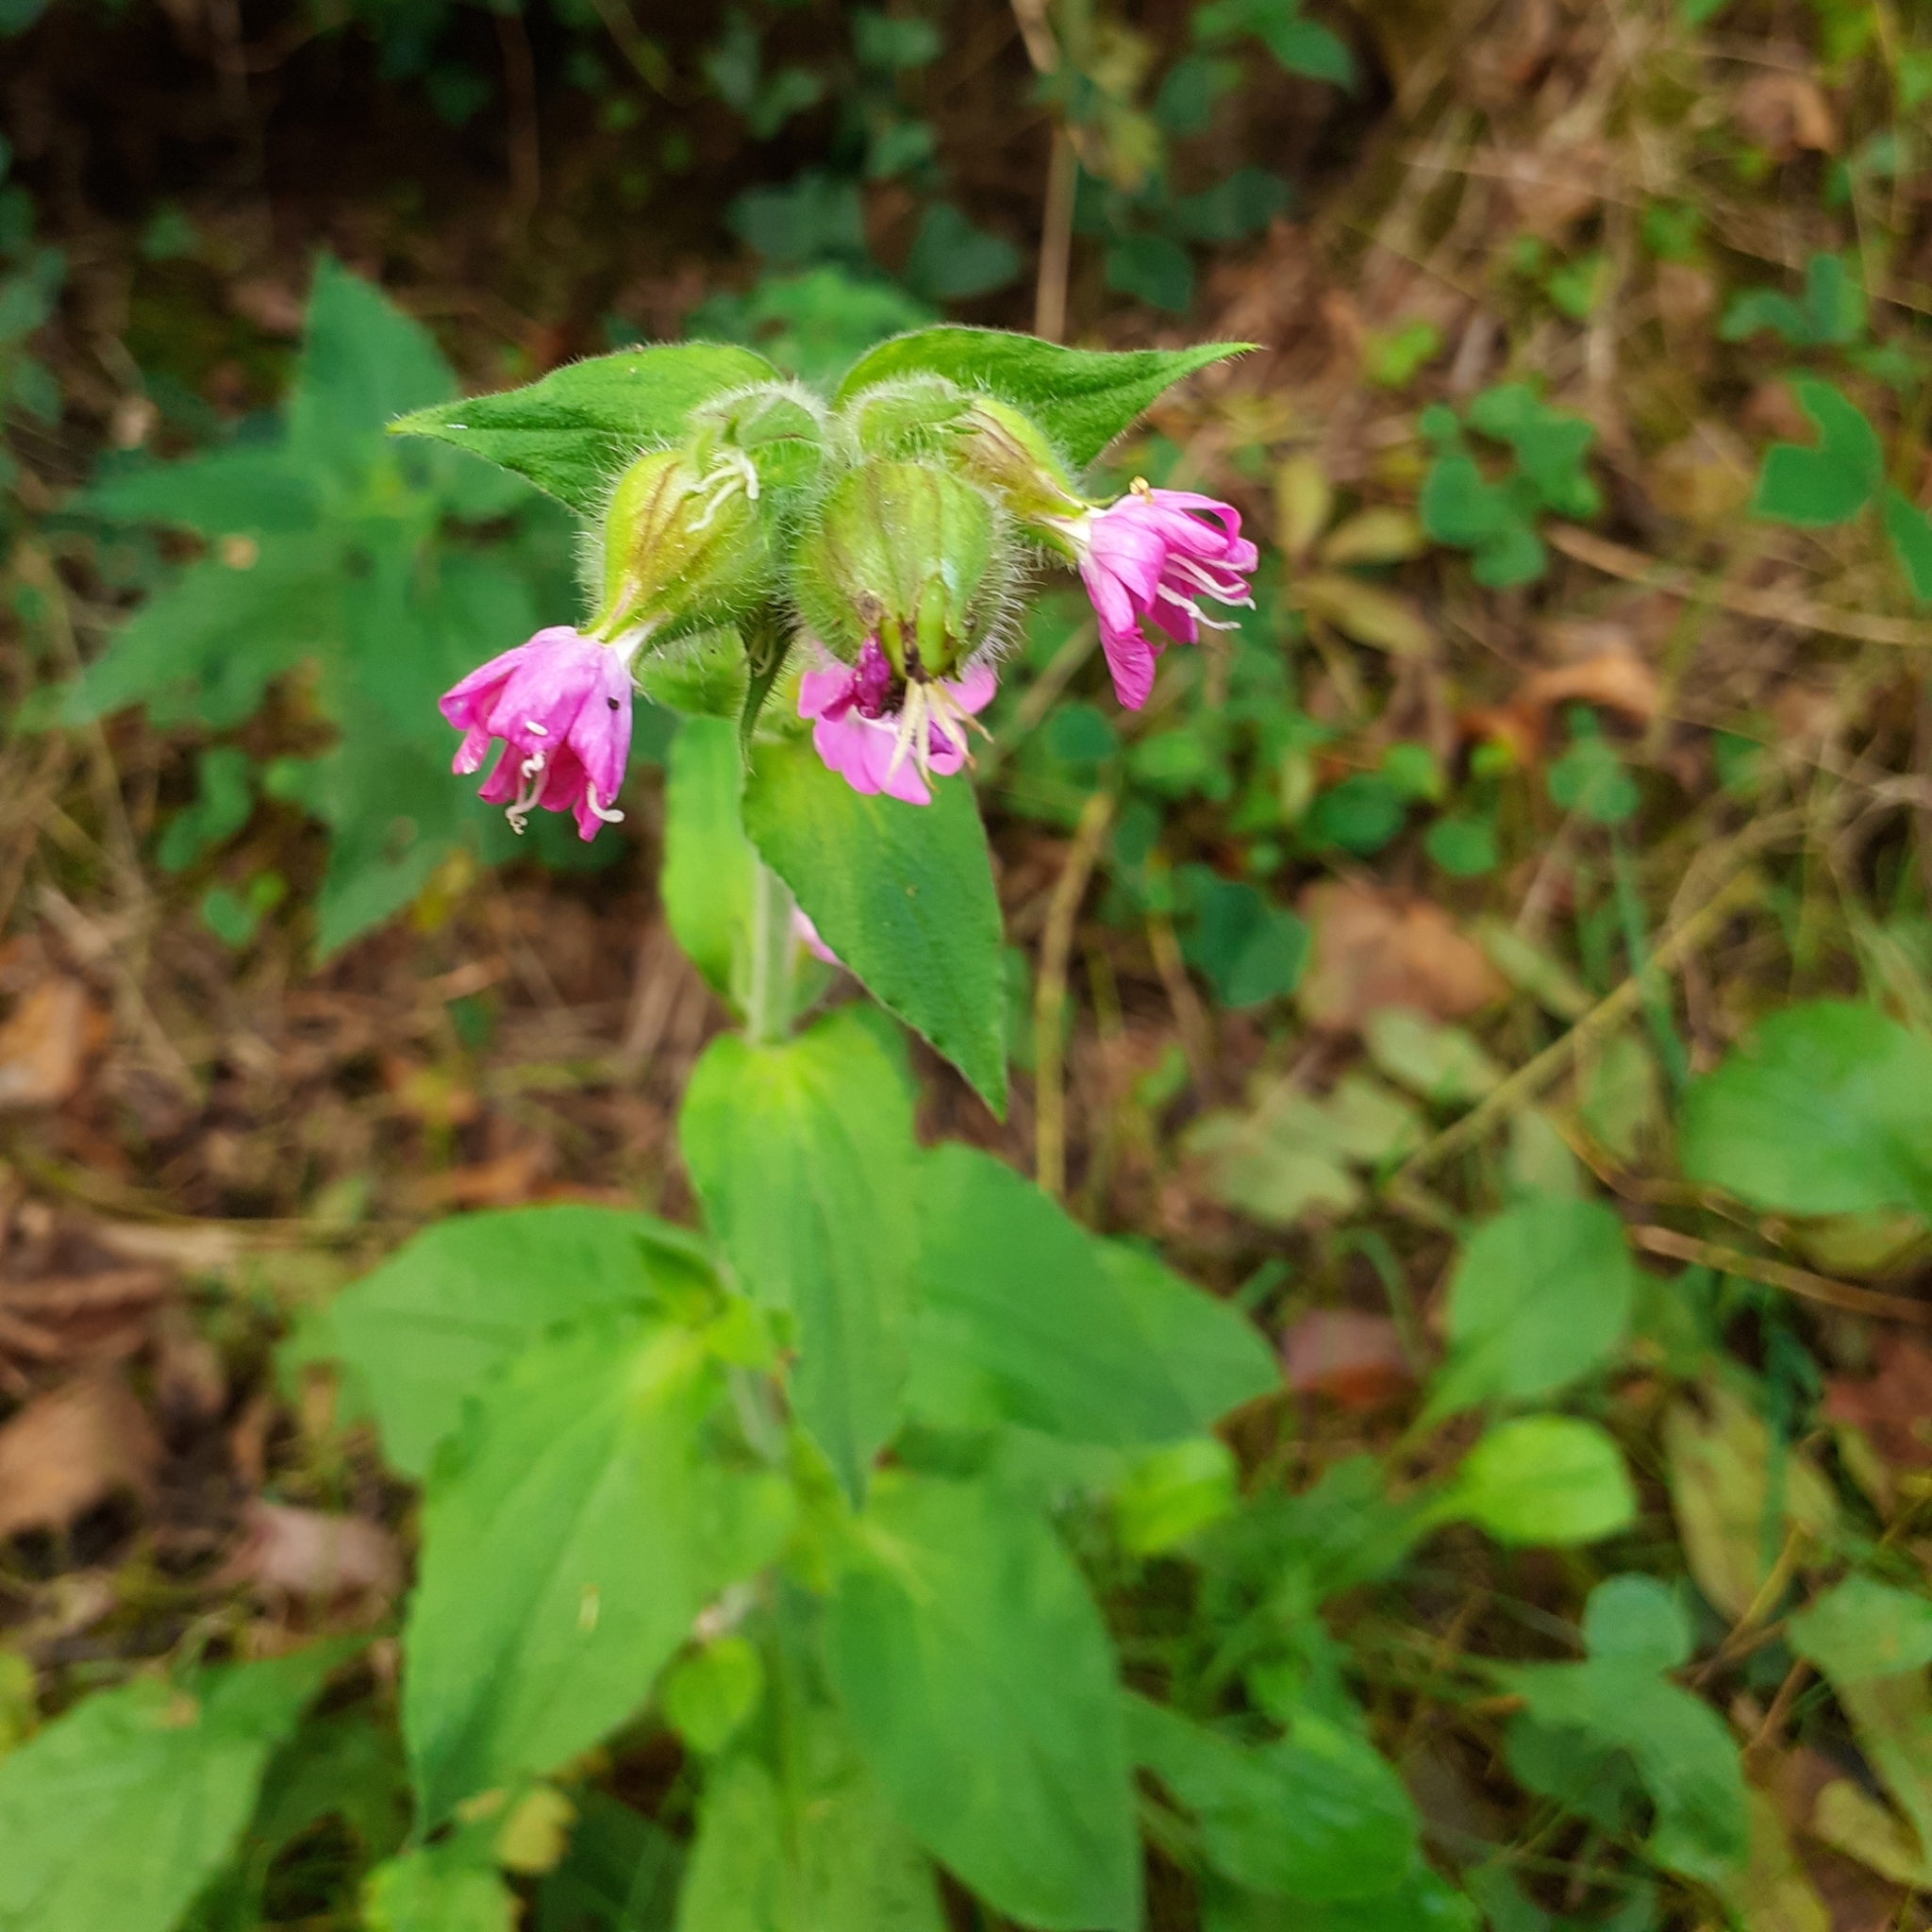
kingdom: Plantae
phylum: Tracheophyta
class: Magnoliopsida
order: Caryophyllales
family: Caryophyllaceae
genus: Silene
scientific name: Silene dioica
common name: Red campion
